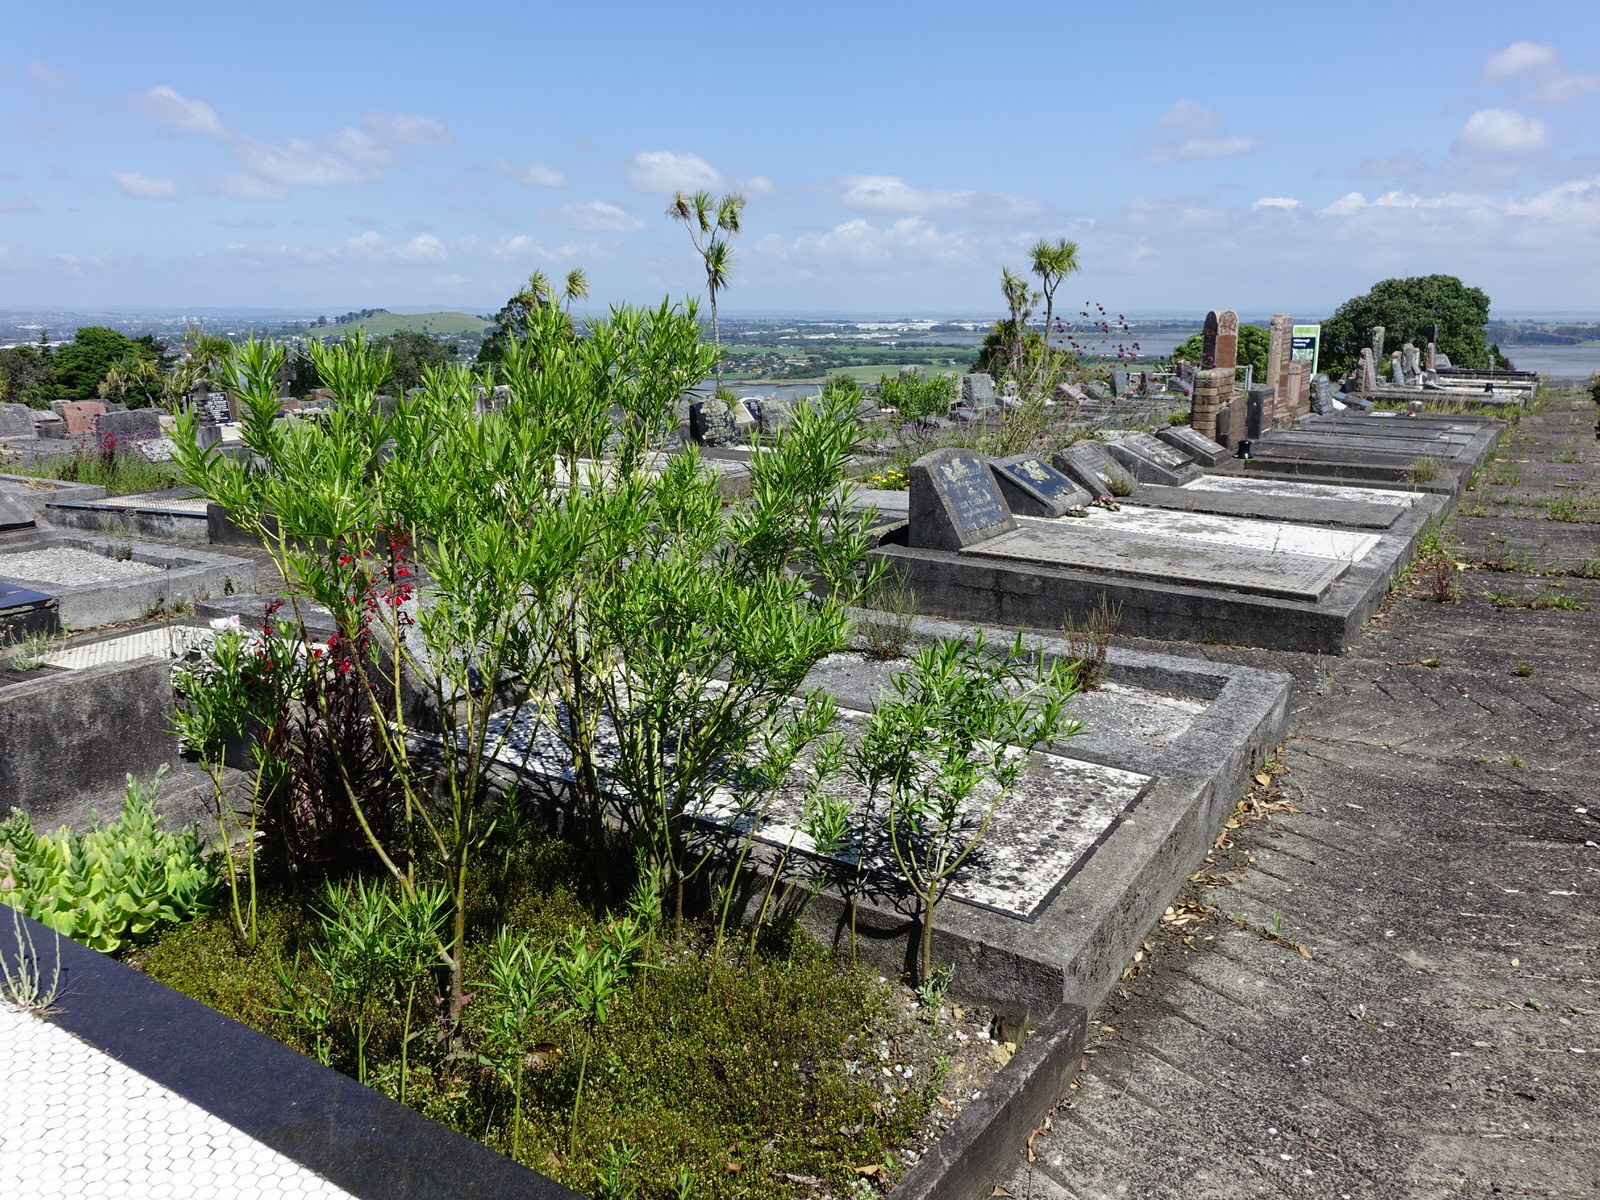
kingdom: Plantae
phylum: Tracheophyta
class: Magnoliopsida
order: Gentianales
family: Apocynaceae
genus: Gomphocarpus
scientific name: Gomphocarpus physocarpus
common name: Balloon cotton bush
